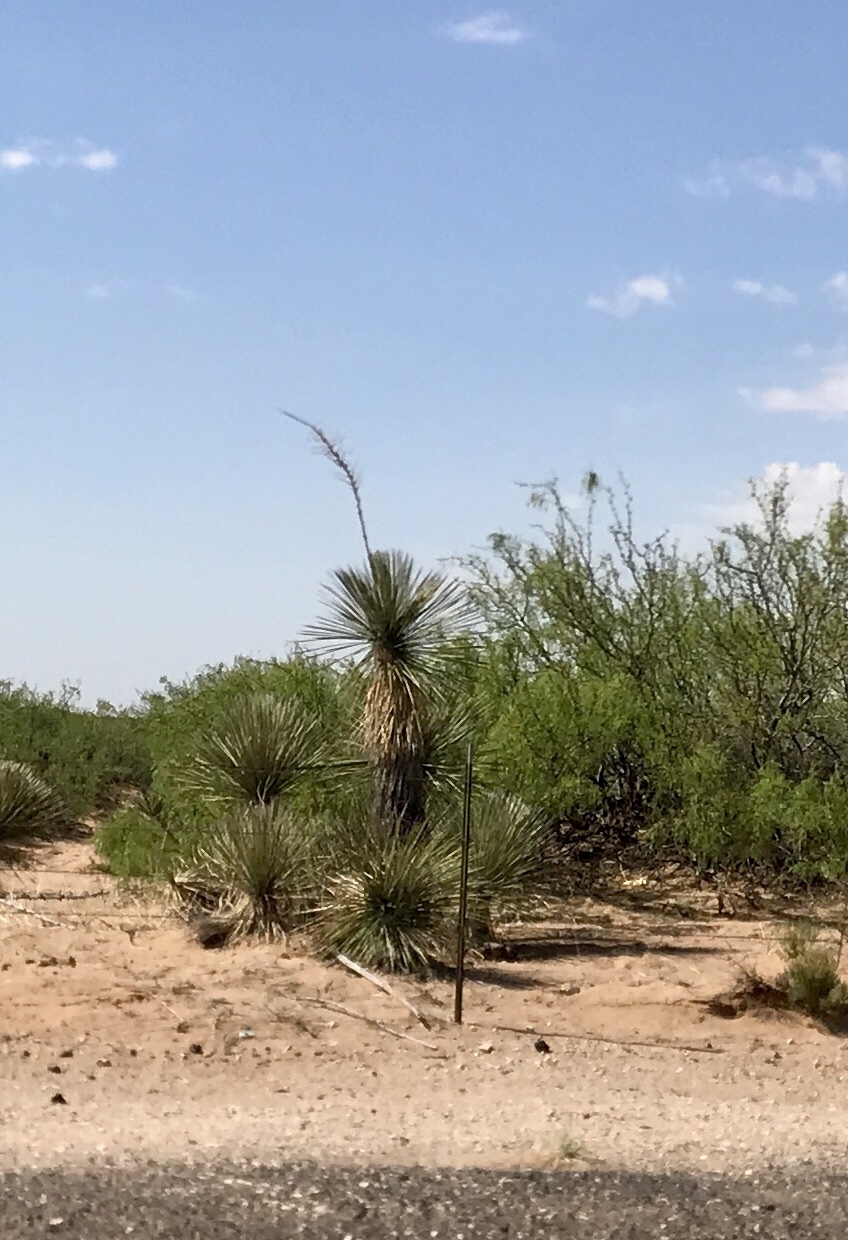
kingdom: Plantae
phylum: Tracheophyta
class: Liliopsida
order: Asparagales
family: Asparagaceae
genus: Yucca
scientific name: Yucca elata
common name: Palmella
